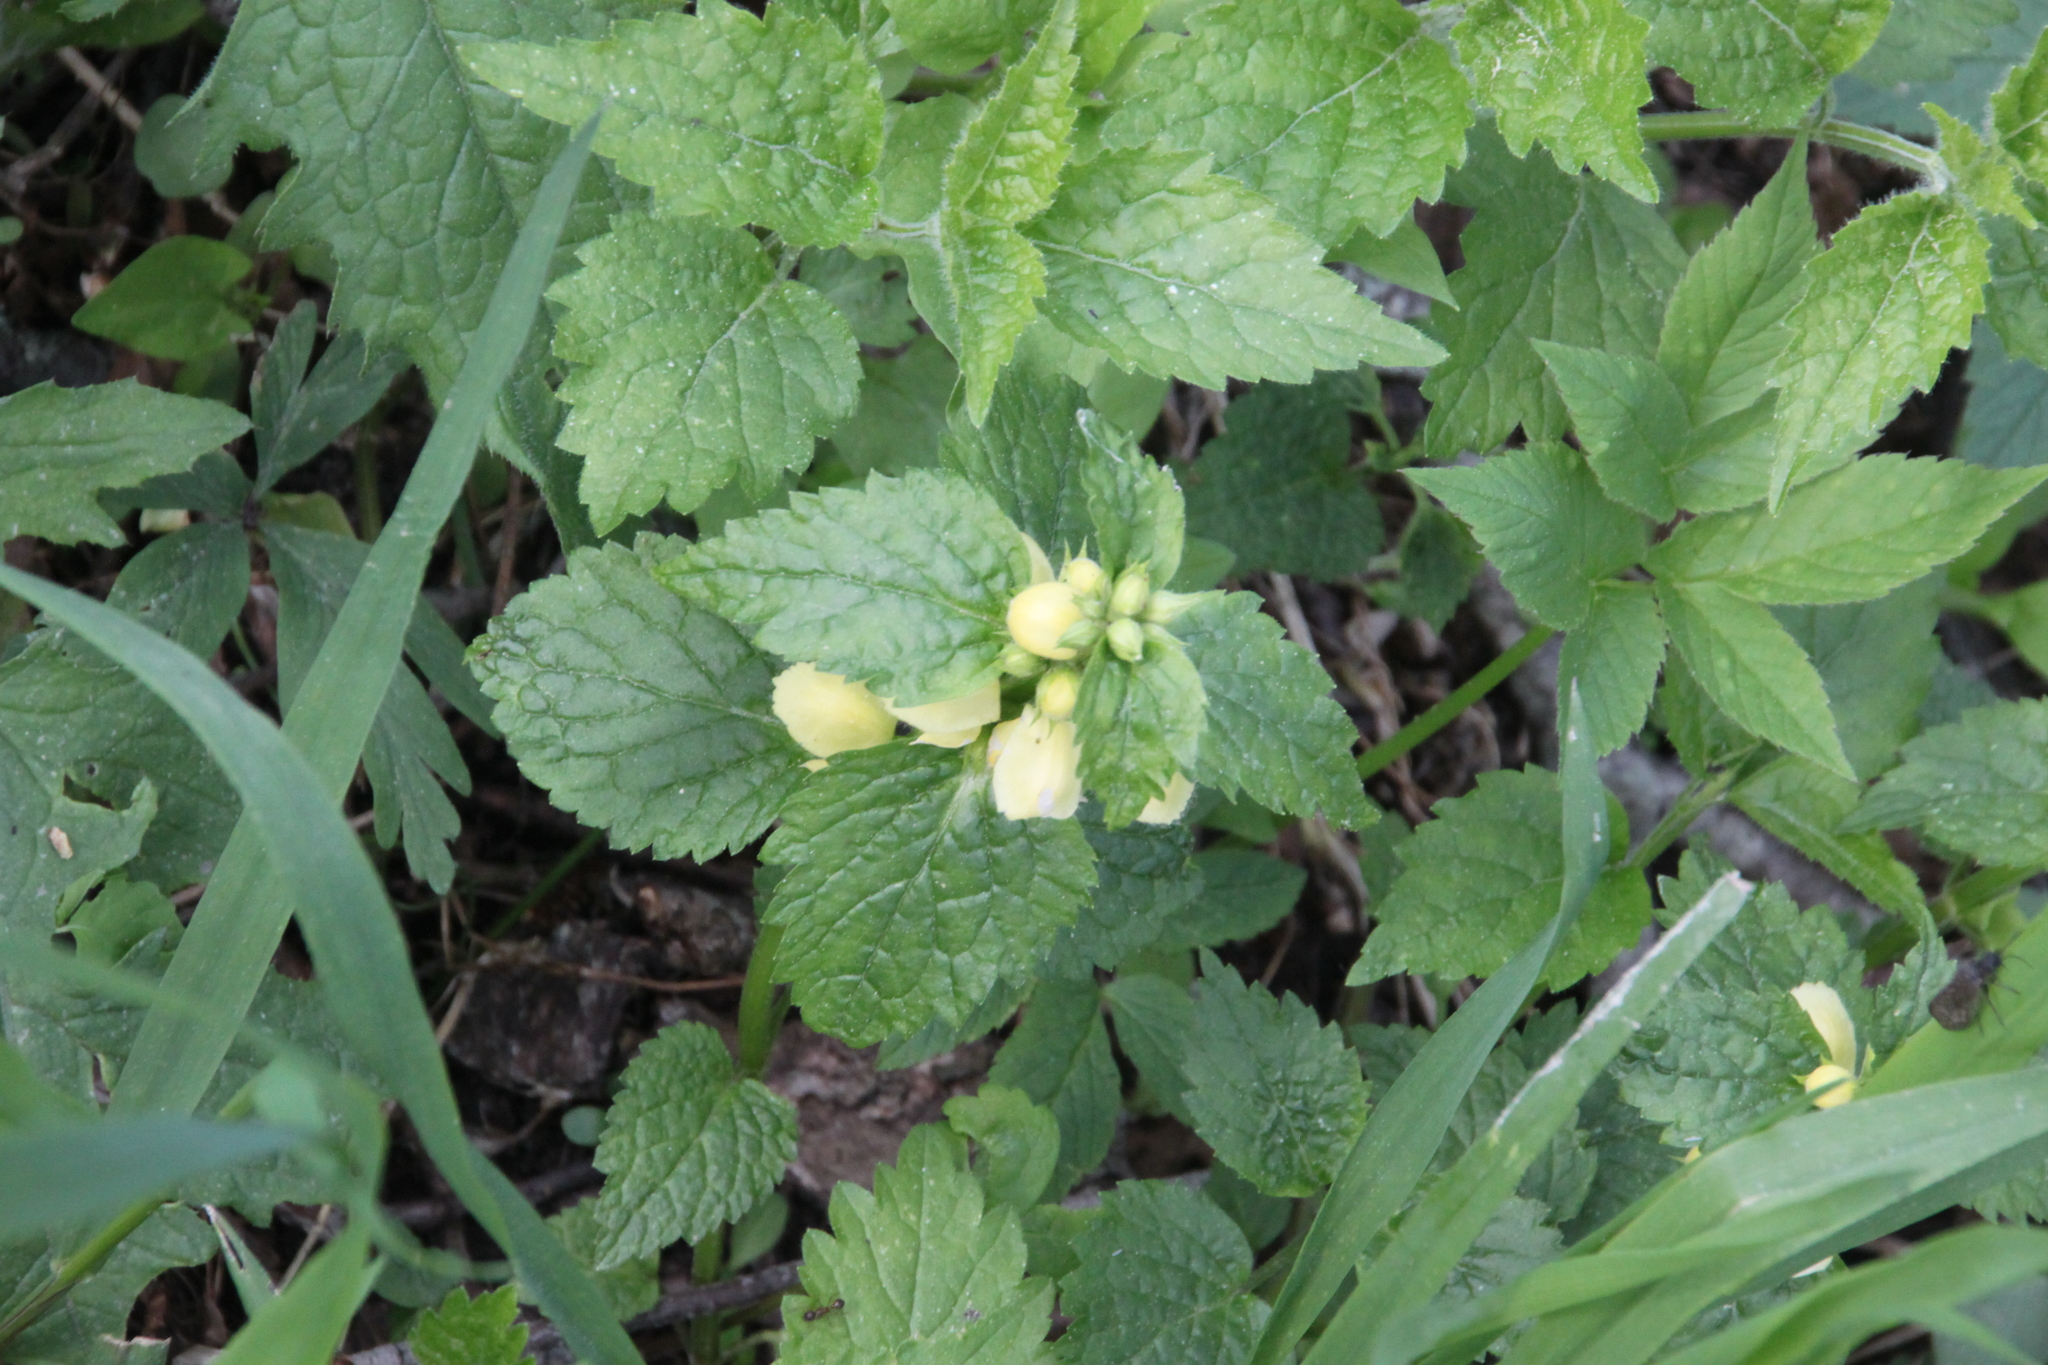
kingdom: Plantae
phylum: Tracheophyta
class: Magnoliopsida
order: Lamiales
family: Lamiaceae
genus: Lamium
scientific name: Lamium galeobdolon
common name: Yellow archangel
